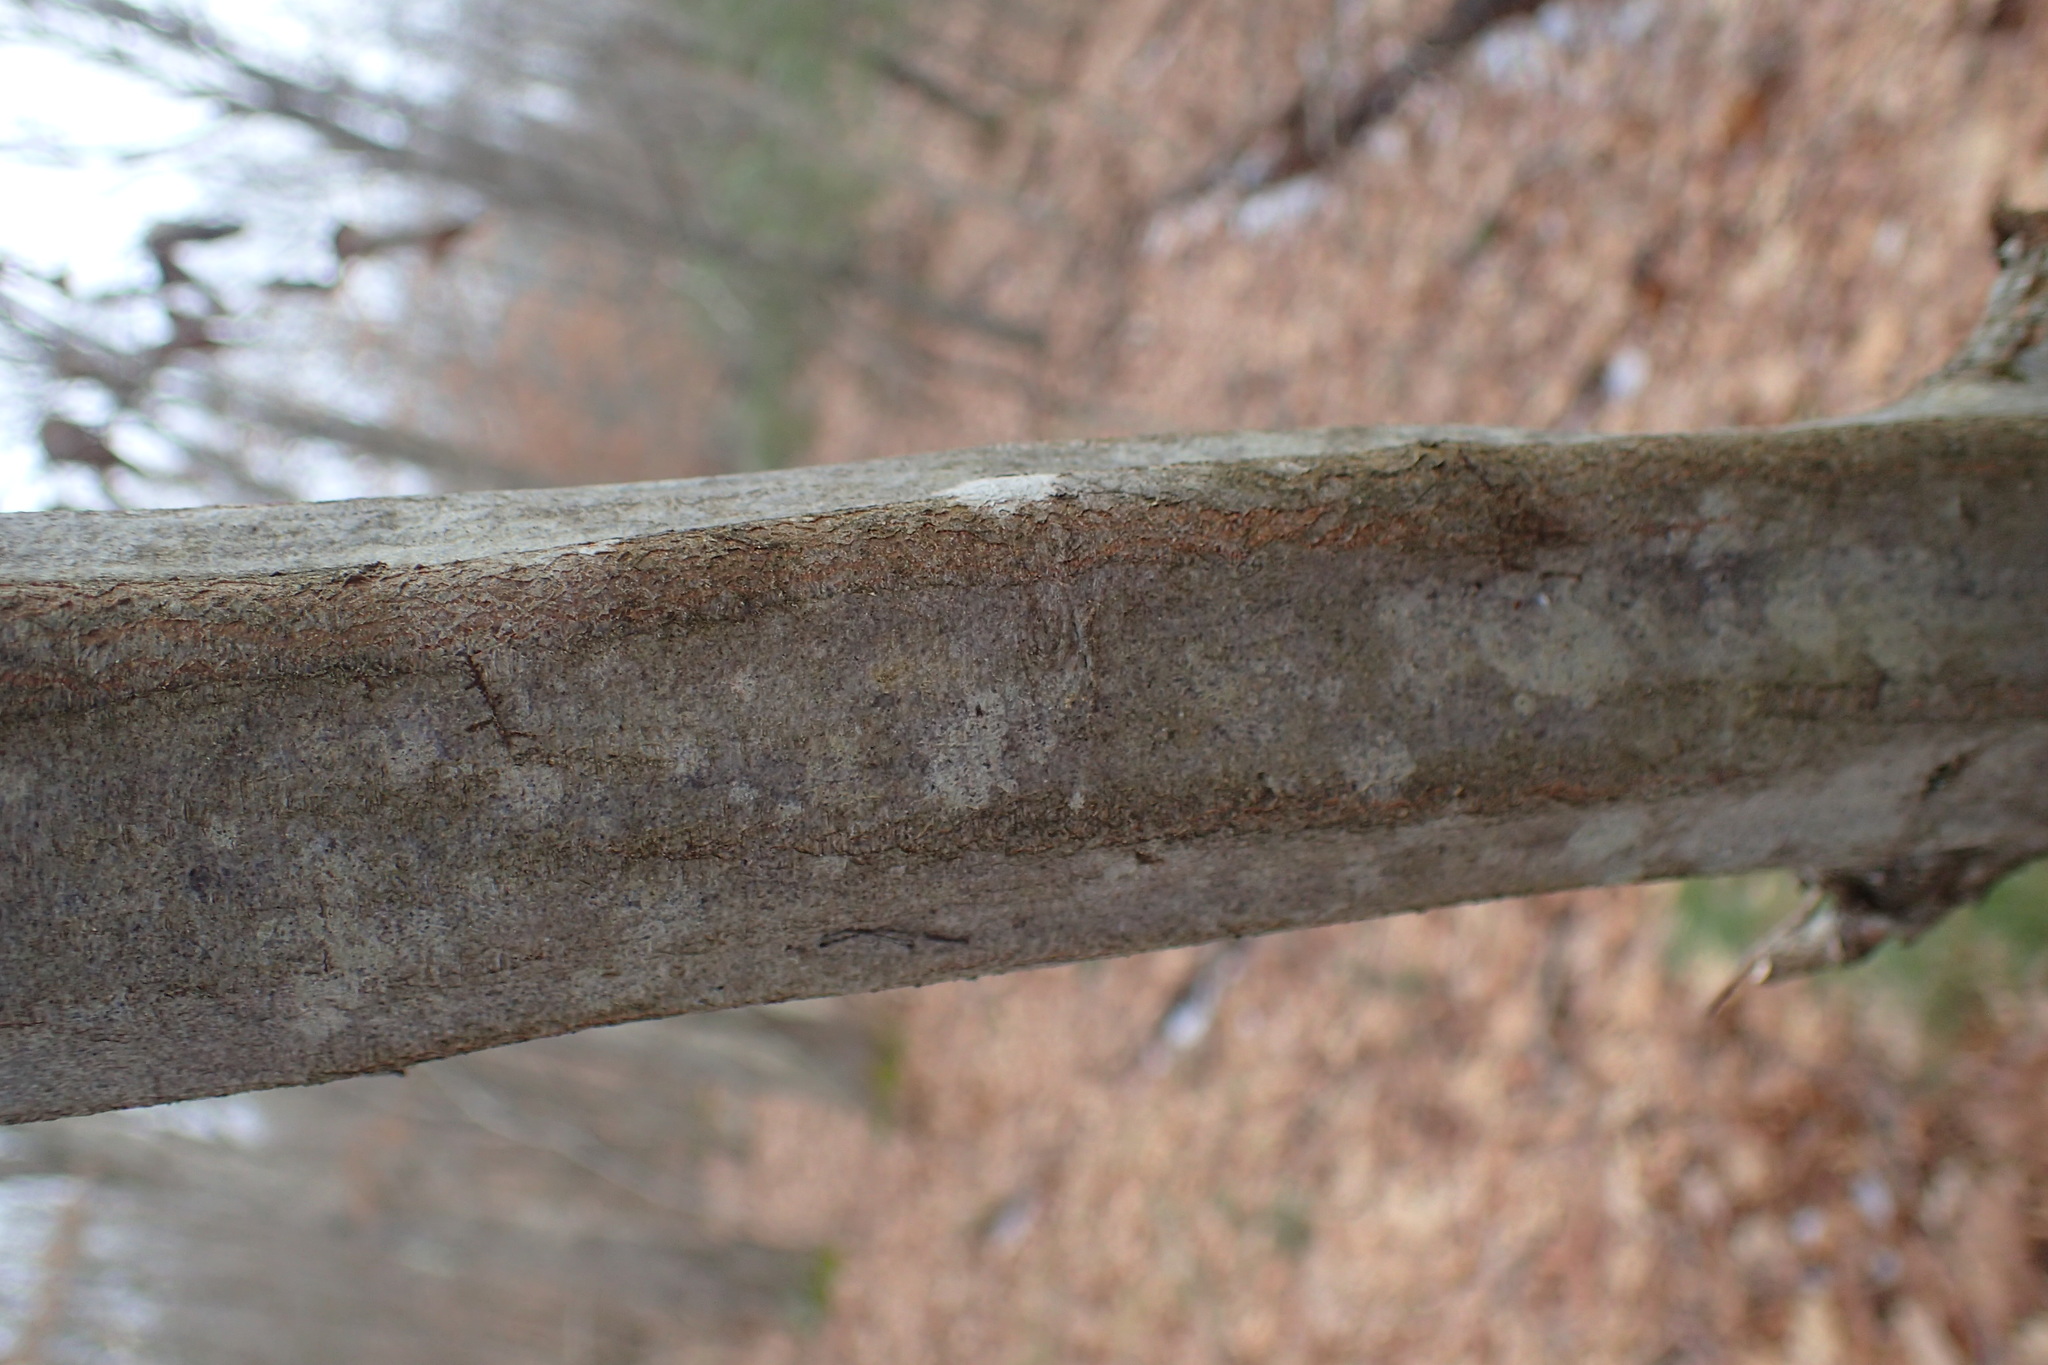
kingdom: Plantae
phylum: Tracheophyta
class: Magnoliopsida
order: Fagales
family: Betulaceae
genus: Carpinus
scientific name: Carpinus caroliniana
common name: American hornbeam
